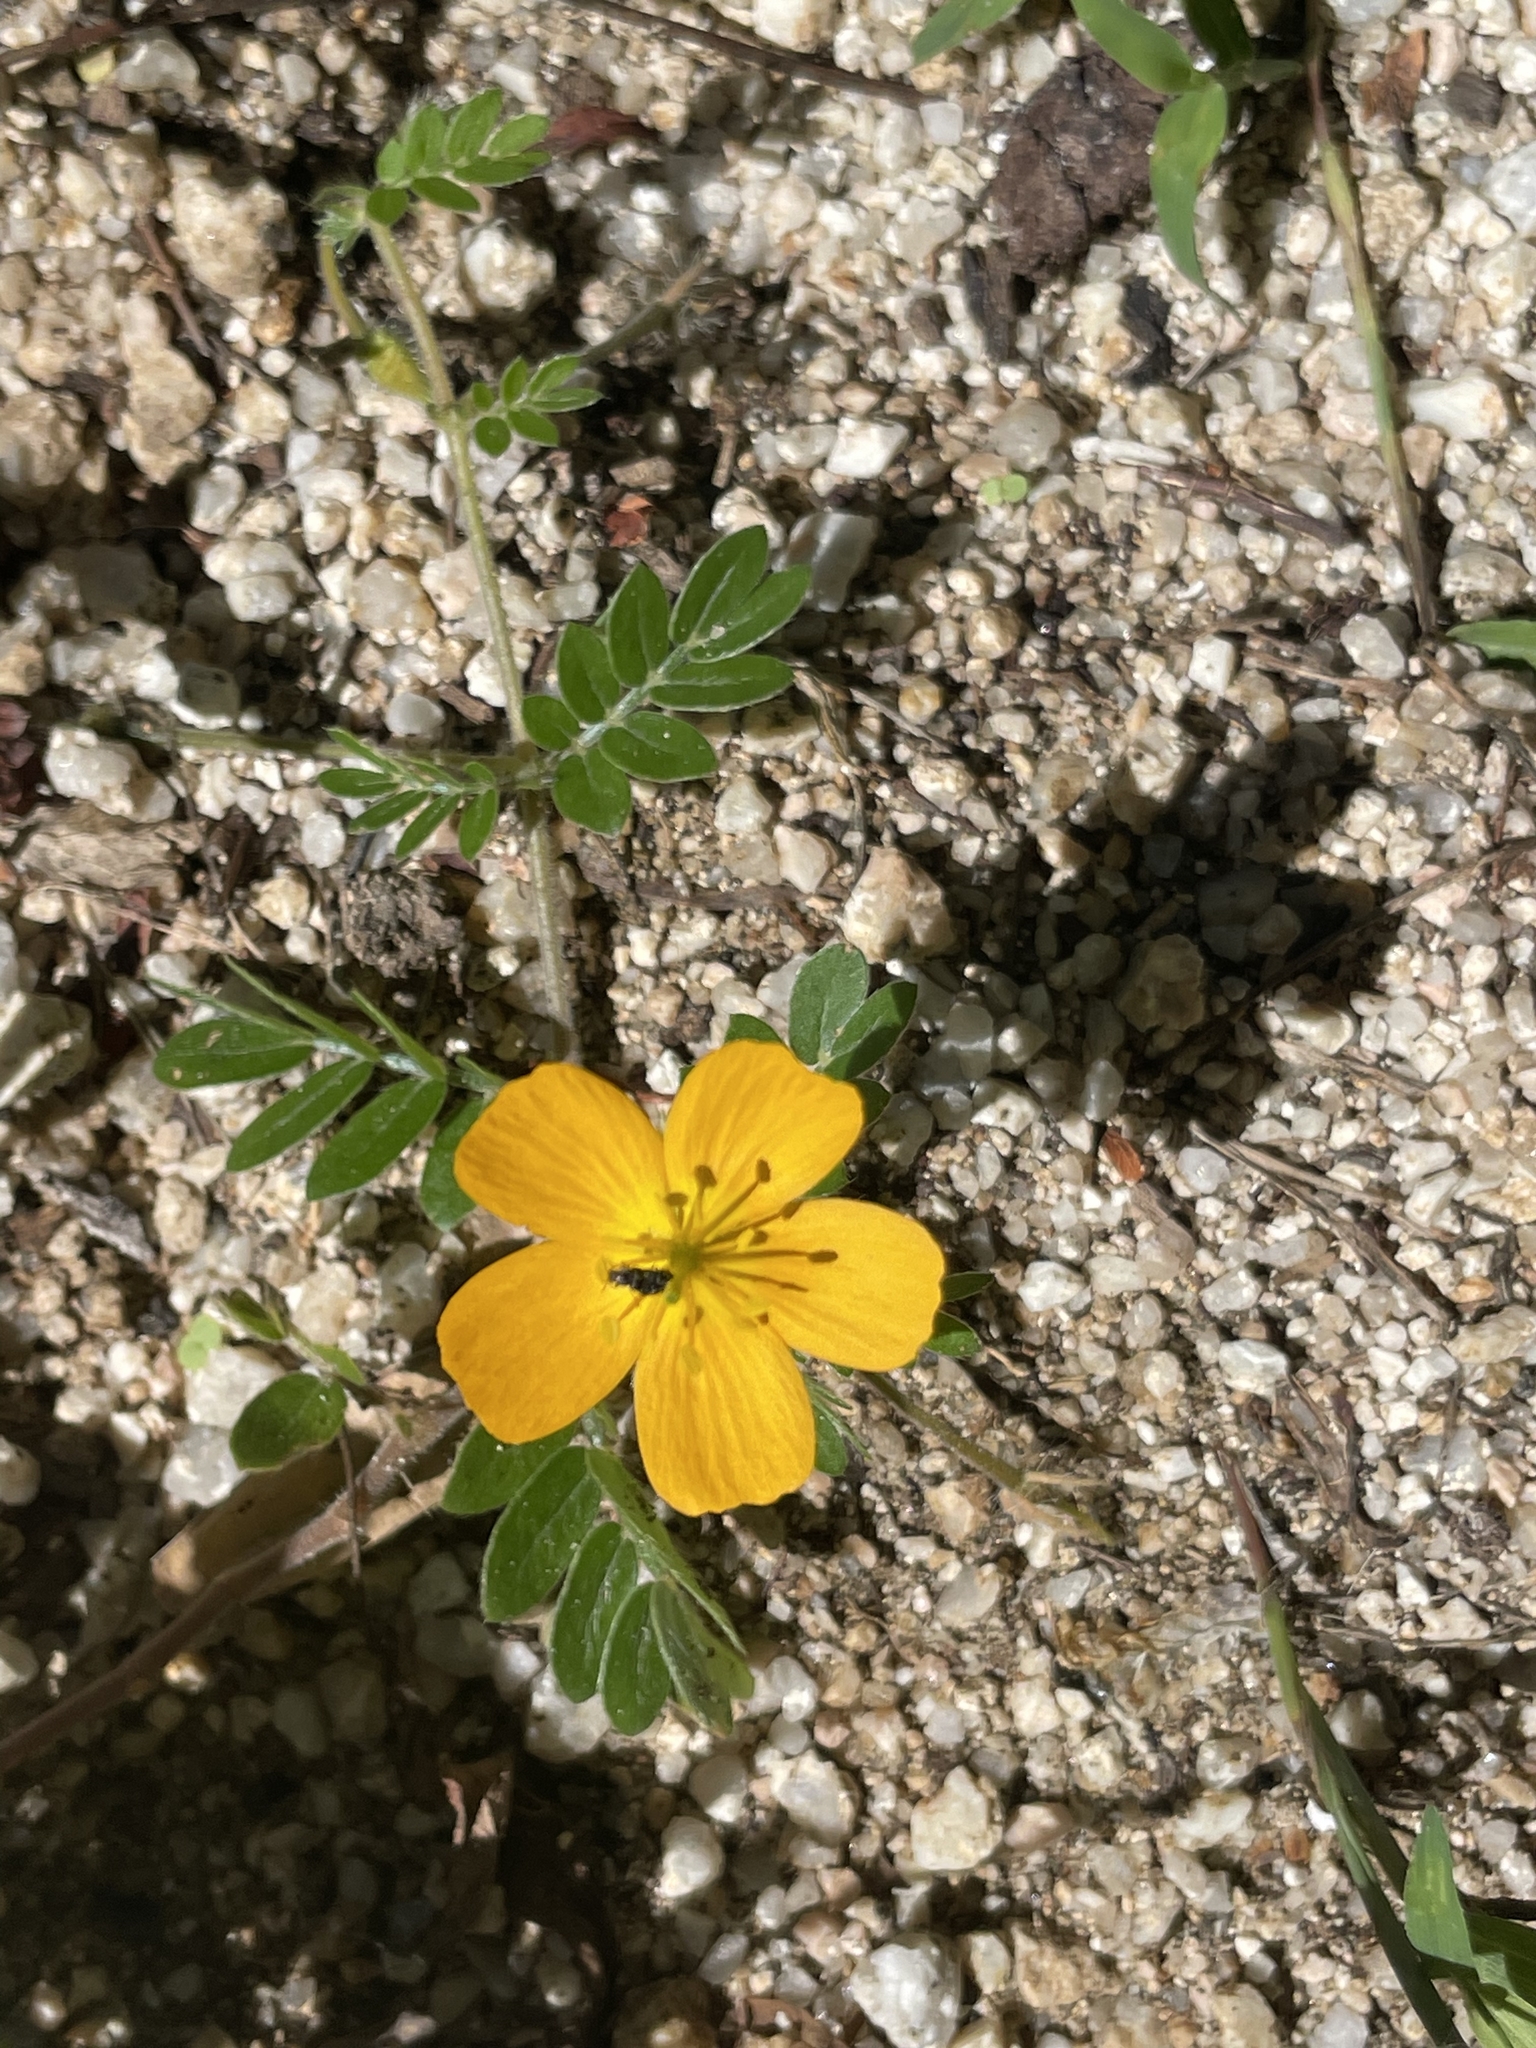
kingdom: Plantae
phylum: Tracheophyta
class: Magnoliopsida
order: Zygophyllales
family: Zygophyllaceae
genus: Kallstroemia
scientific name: Kallstroemia peninsularis
